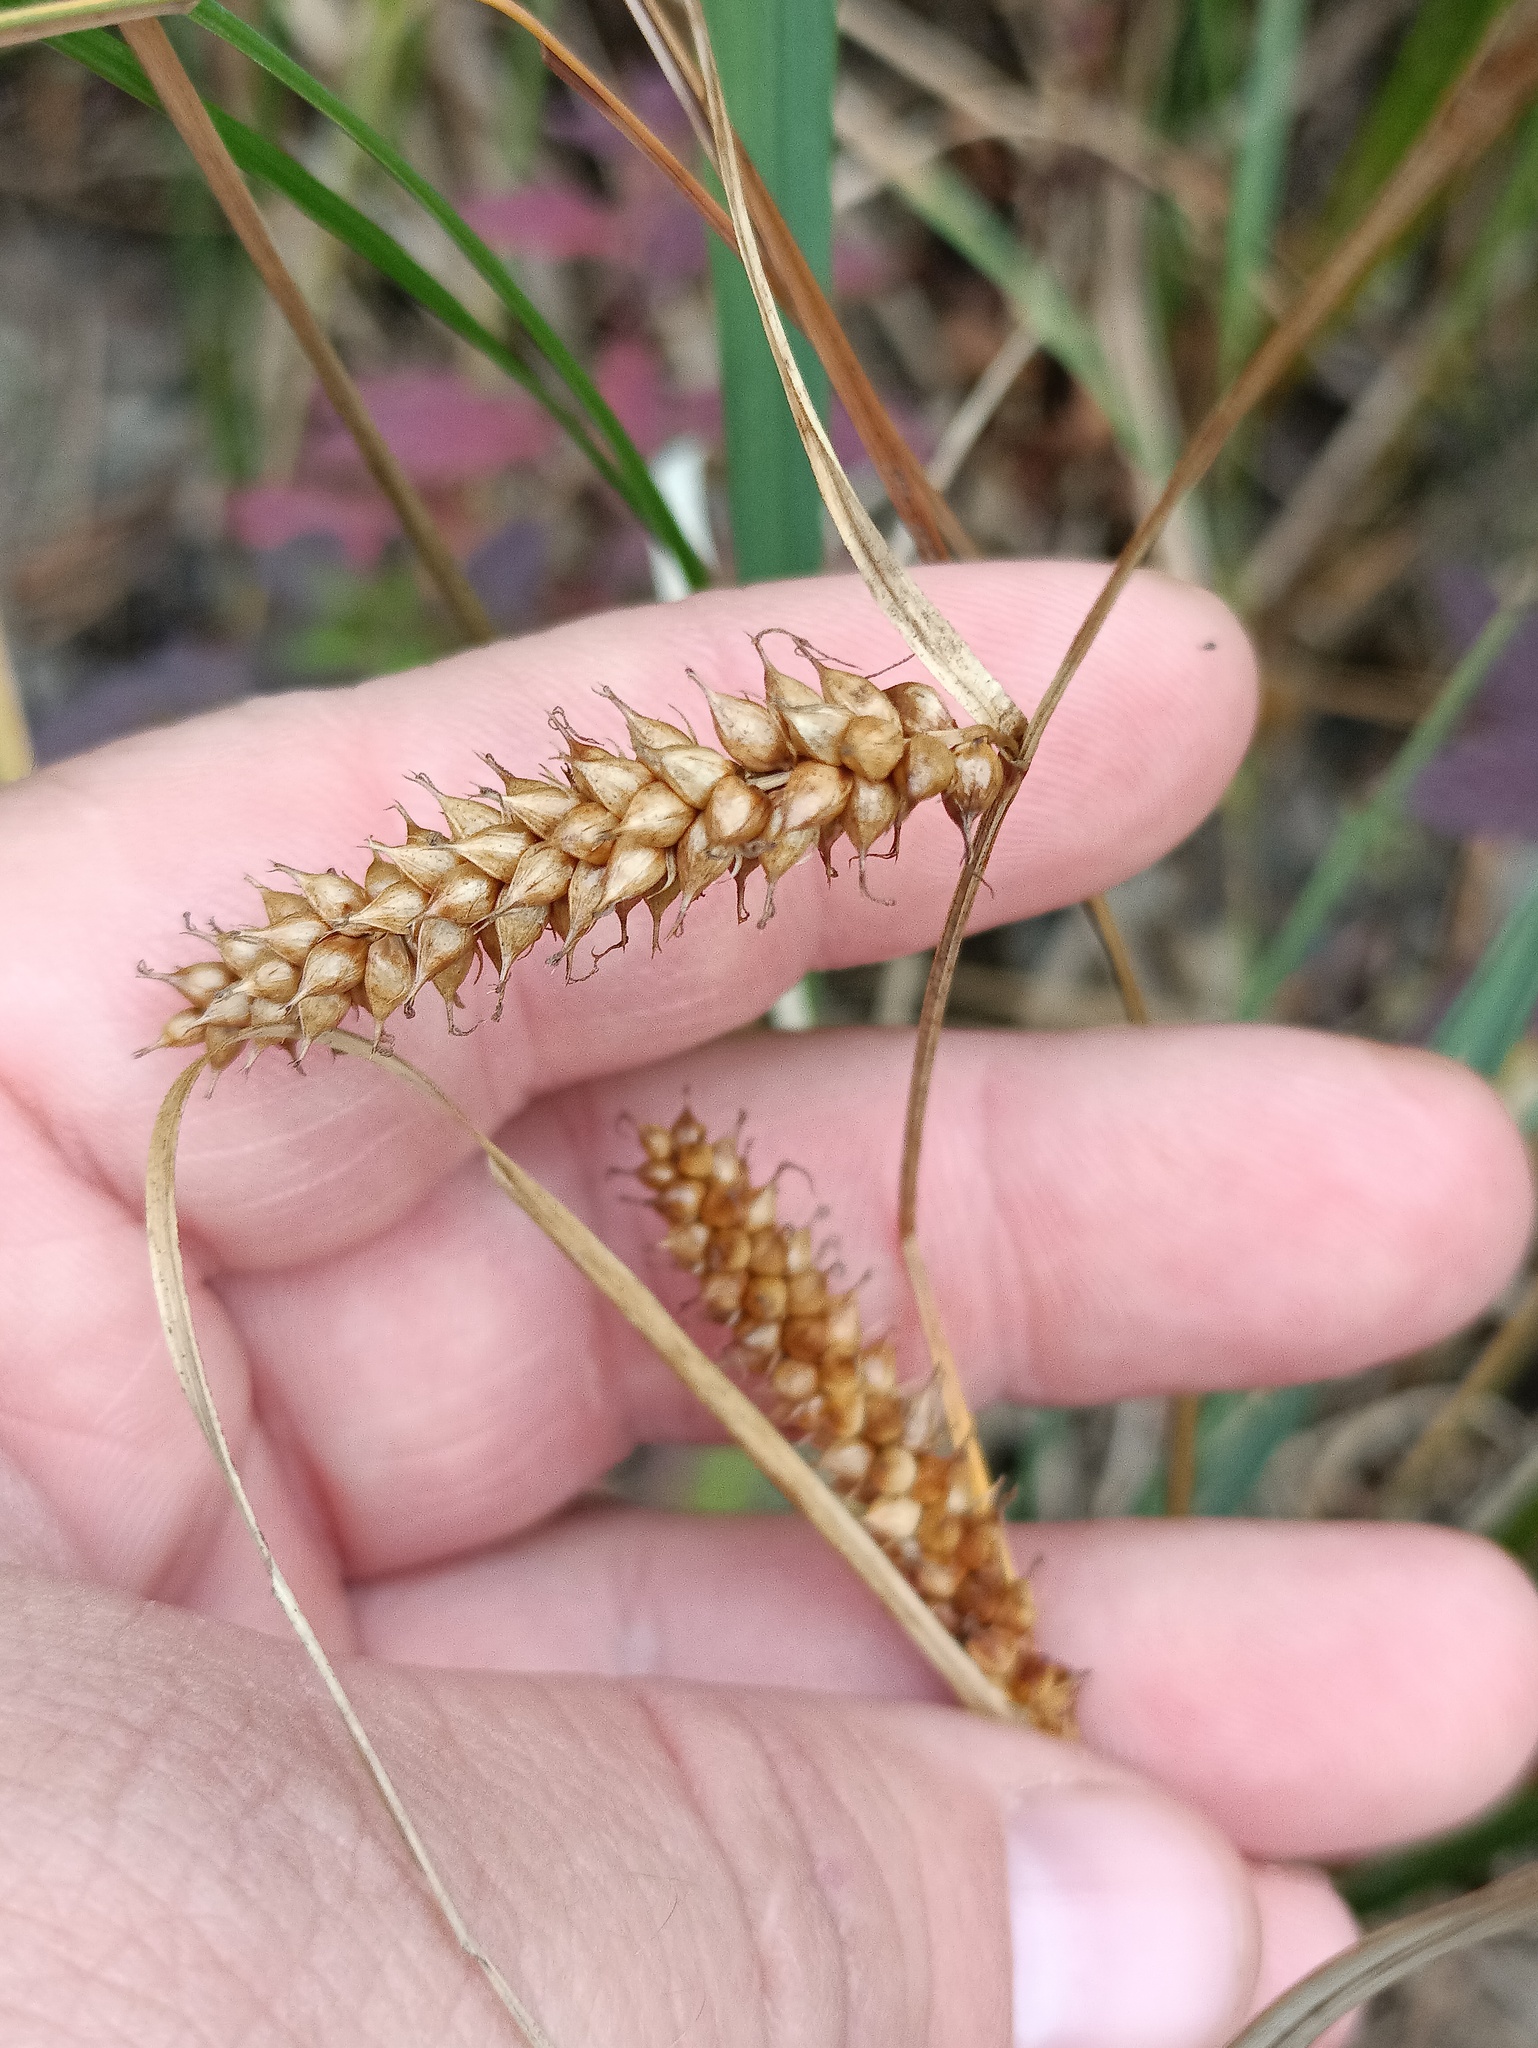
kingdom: Plantae
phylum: Tracheophyta
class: Liliopsida
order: Poales
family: Cyperaceae
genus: Carex
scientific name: Carex rostrata
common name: Bottle sedge
